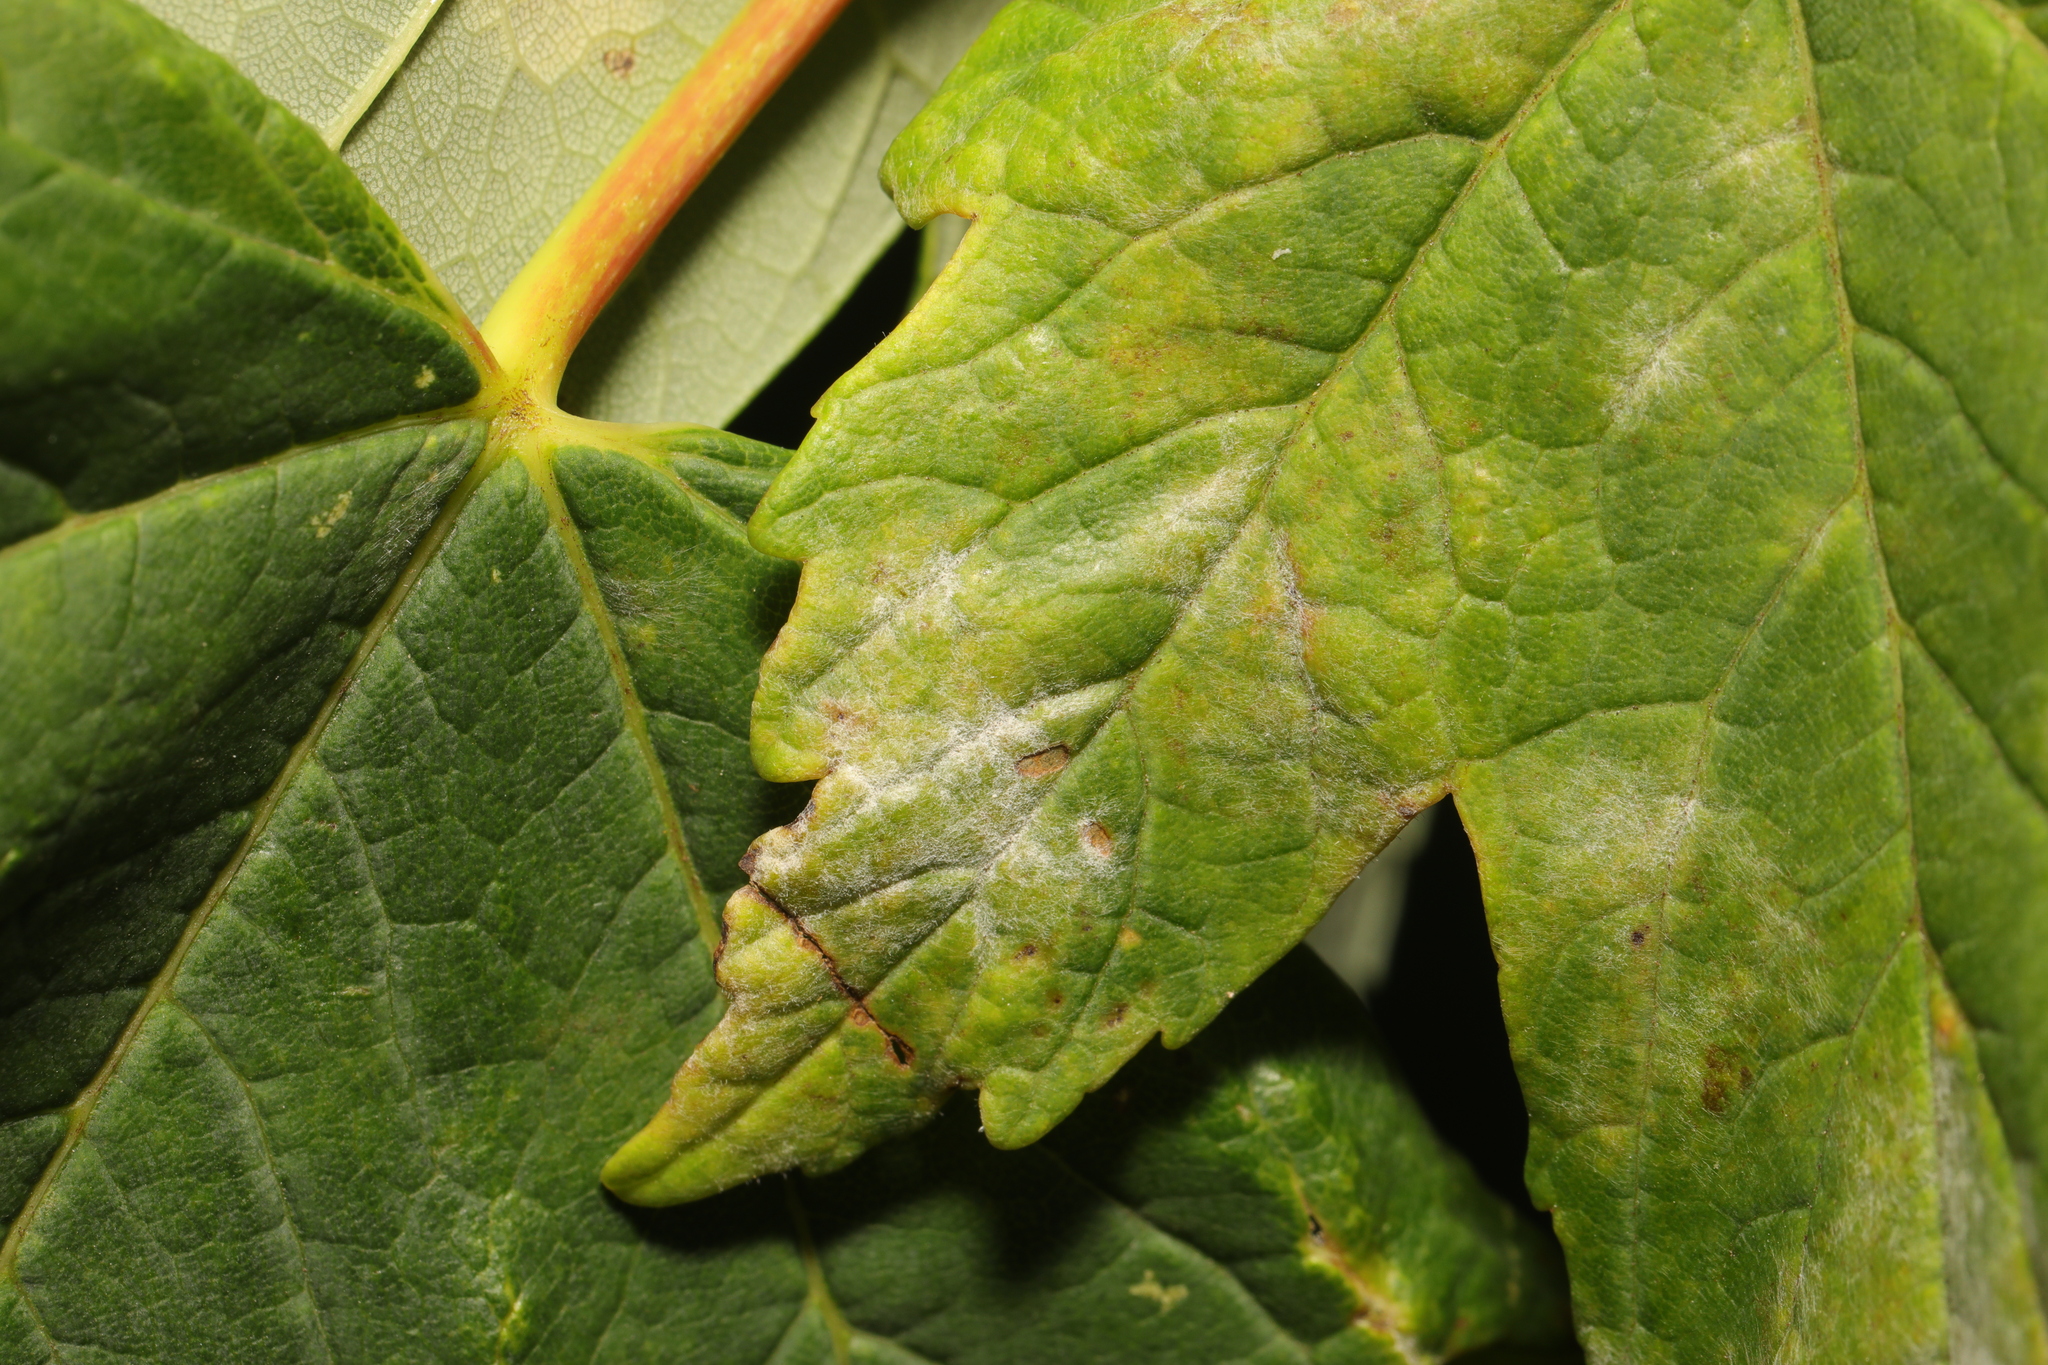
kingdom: Fungi
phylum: Ascomycota
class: Leotiomycetes
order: Helotiales
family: Erysiphaceae
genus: Sawadaea
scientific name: Sawadaea bicornis
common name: Maple mildew
